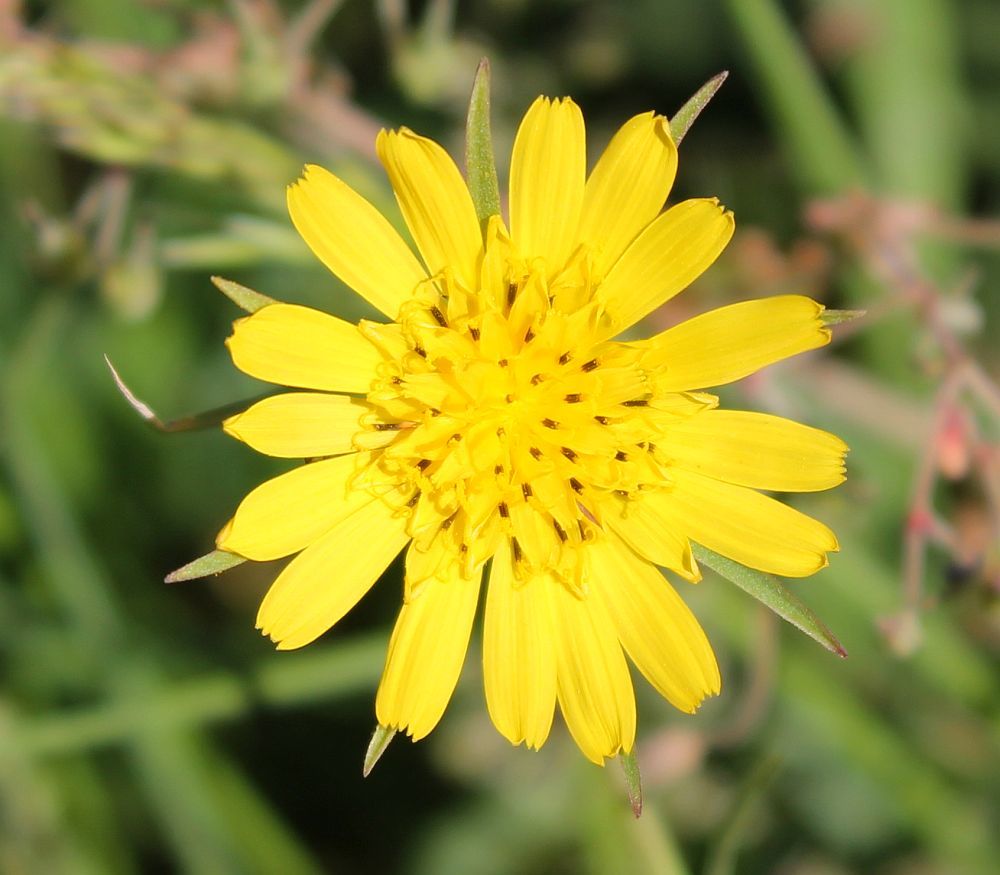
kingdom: Plantae
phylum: Tracheophyta
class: Magnoliopsida
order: Asterales
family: Asteraceae
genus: Tragopogon
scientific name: Tragopogon pratensis
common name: Goat's-beard
